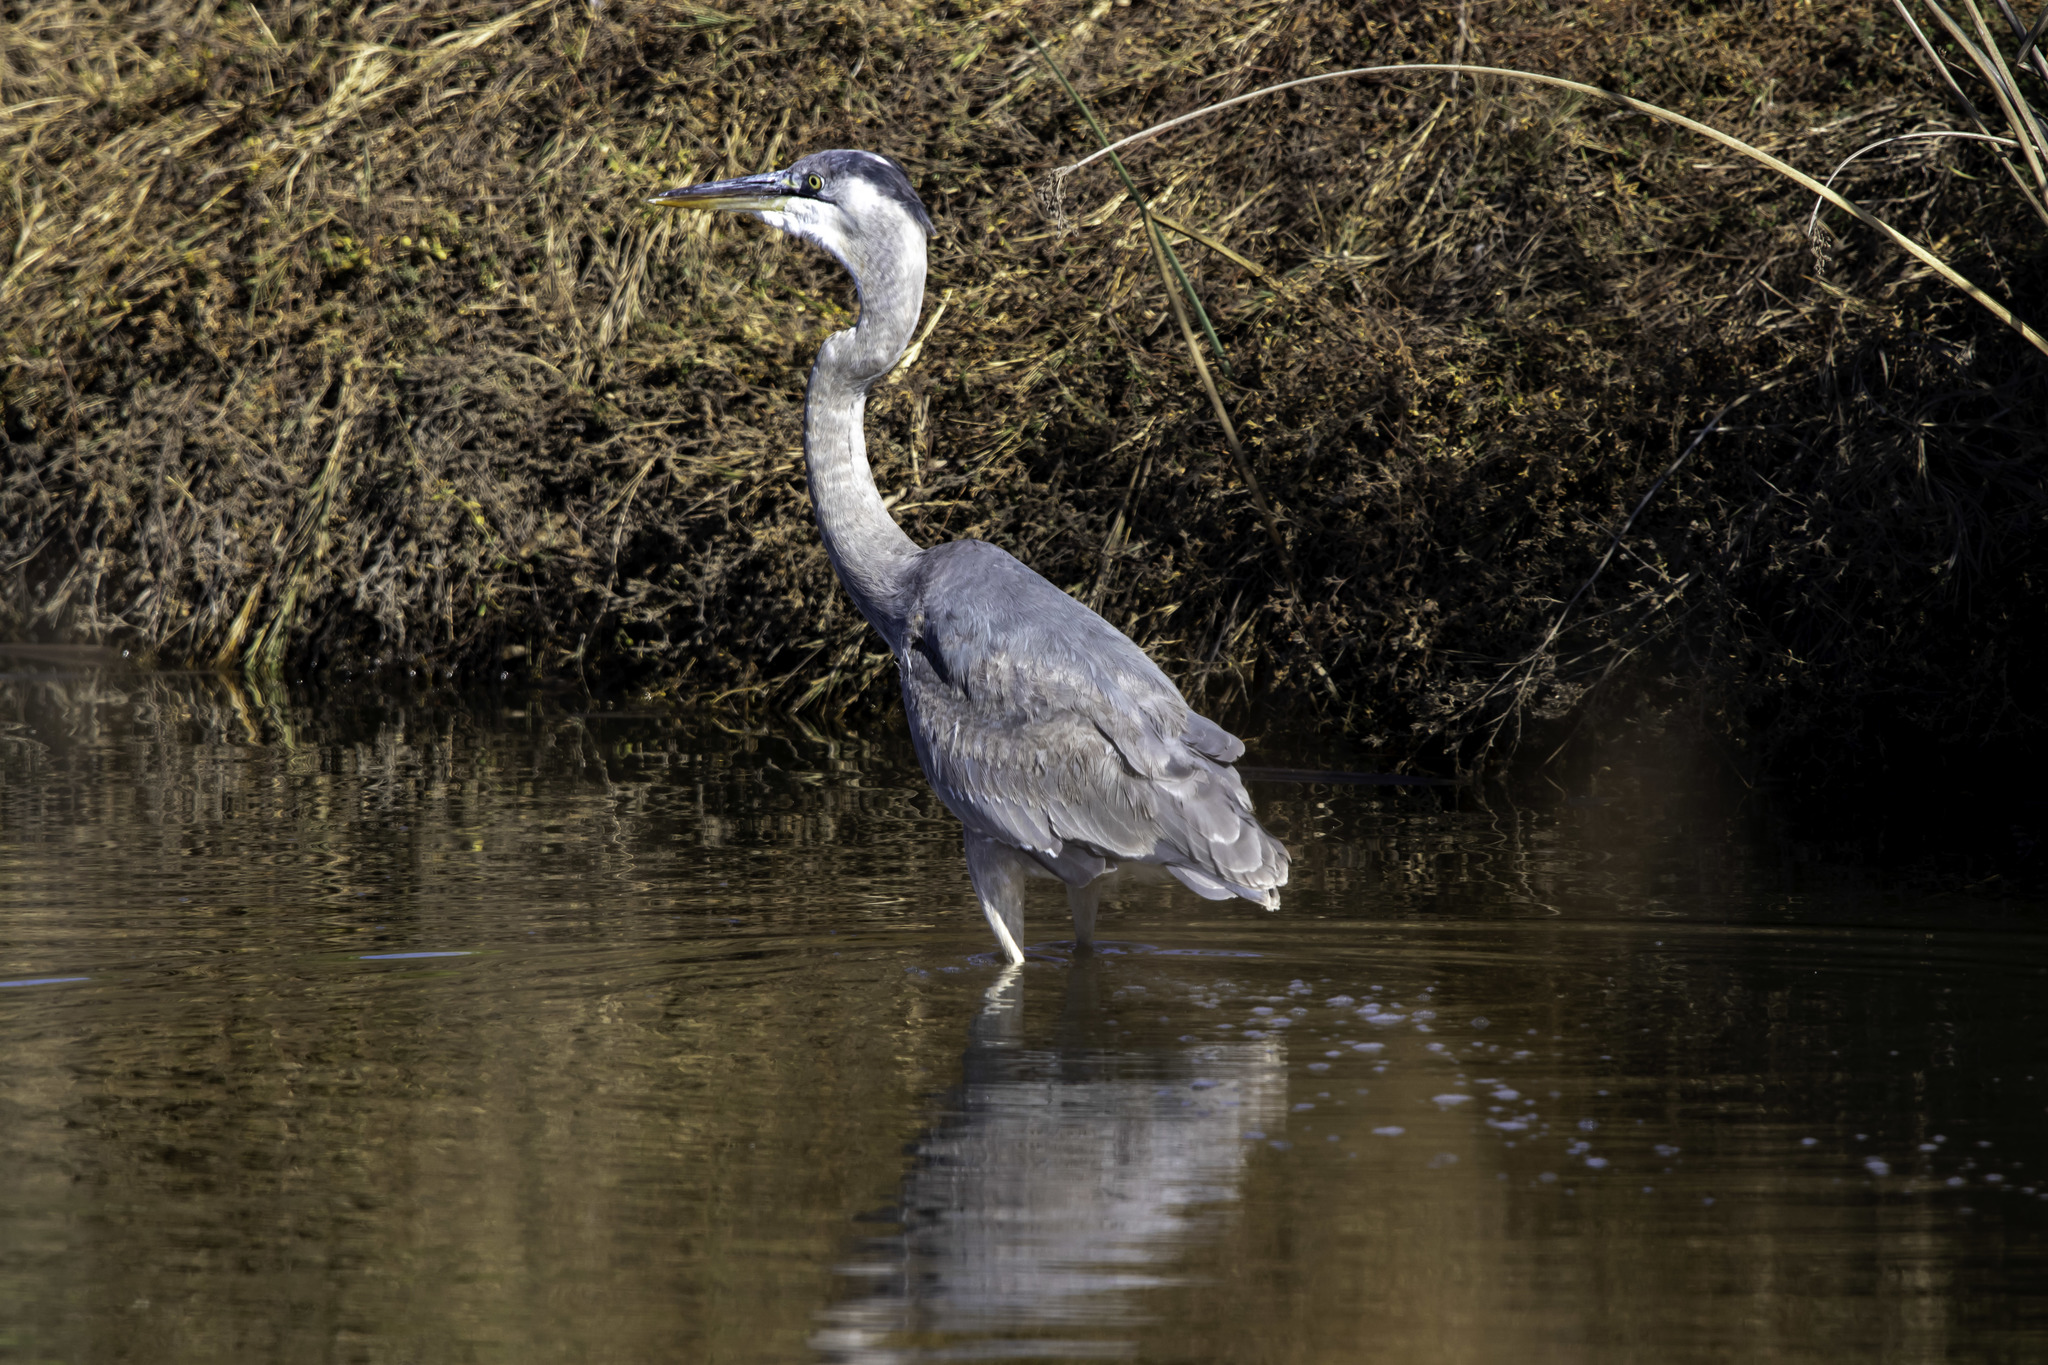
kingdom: Animalia
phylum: Chordata
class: Aves
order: Pelecaniformes
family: Ardeidae
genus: Ardea
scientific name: Ardea herodias
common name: Great blue heron
